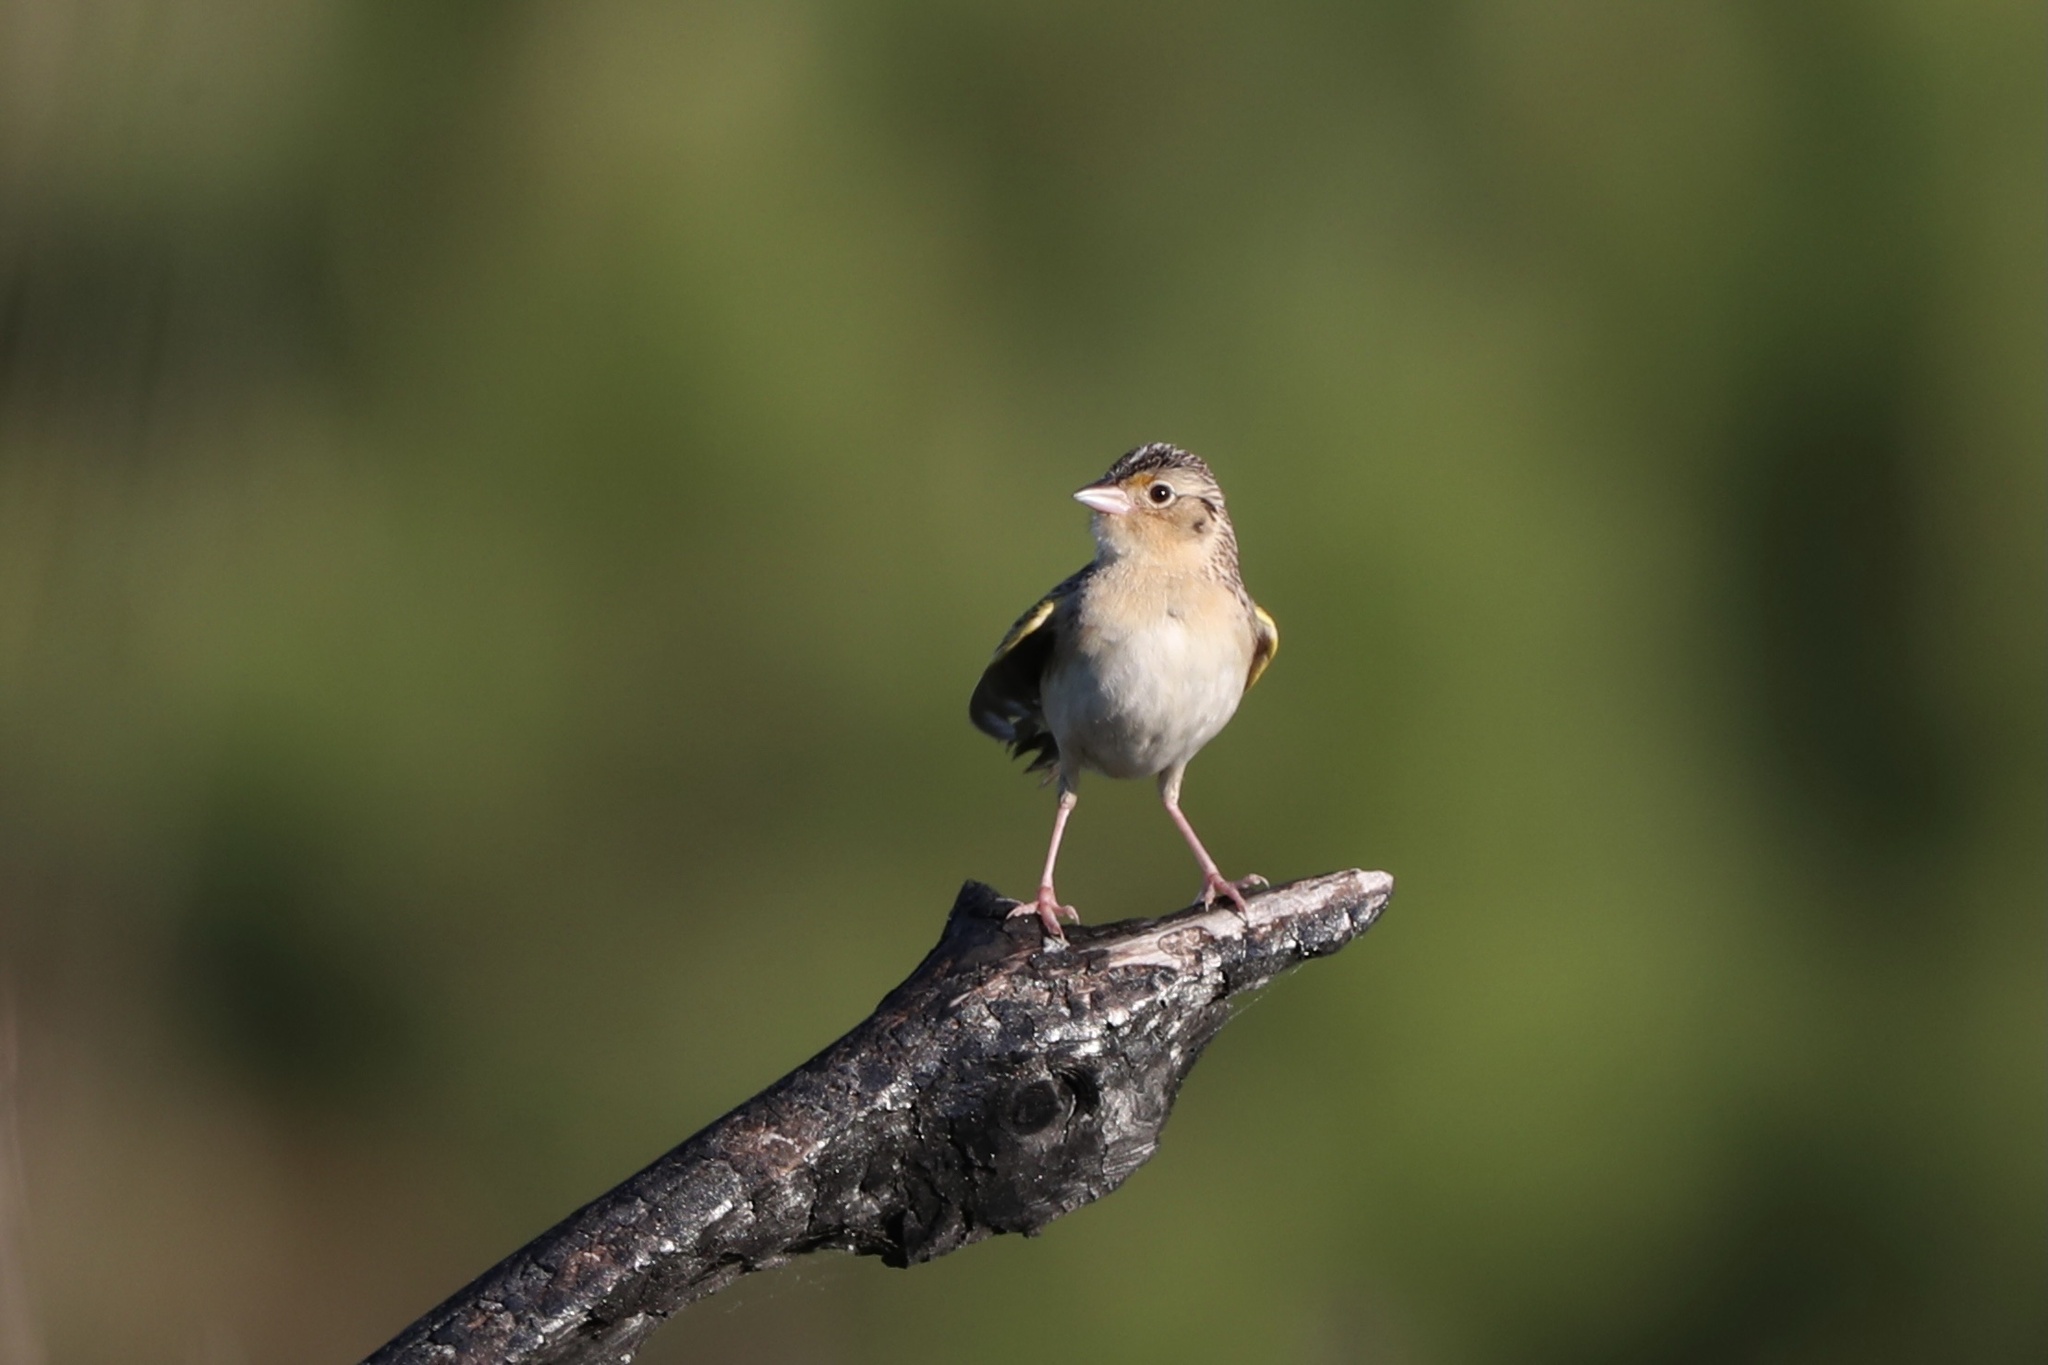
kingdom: Animalia
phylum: Chordata
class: Aves
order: Passeriformes
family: Passerellidae
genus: Ammodramus
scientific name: Ammodramus savannarum
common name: Grasshopper sparrow
